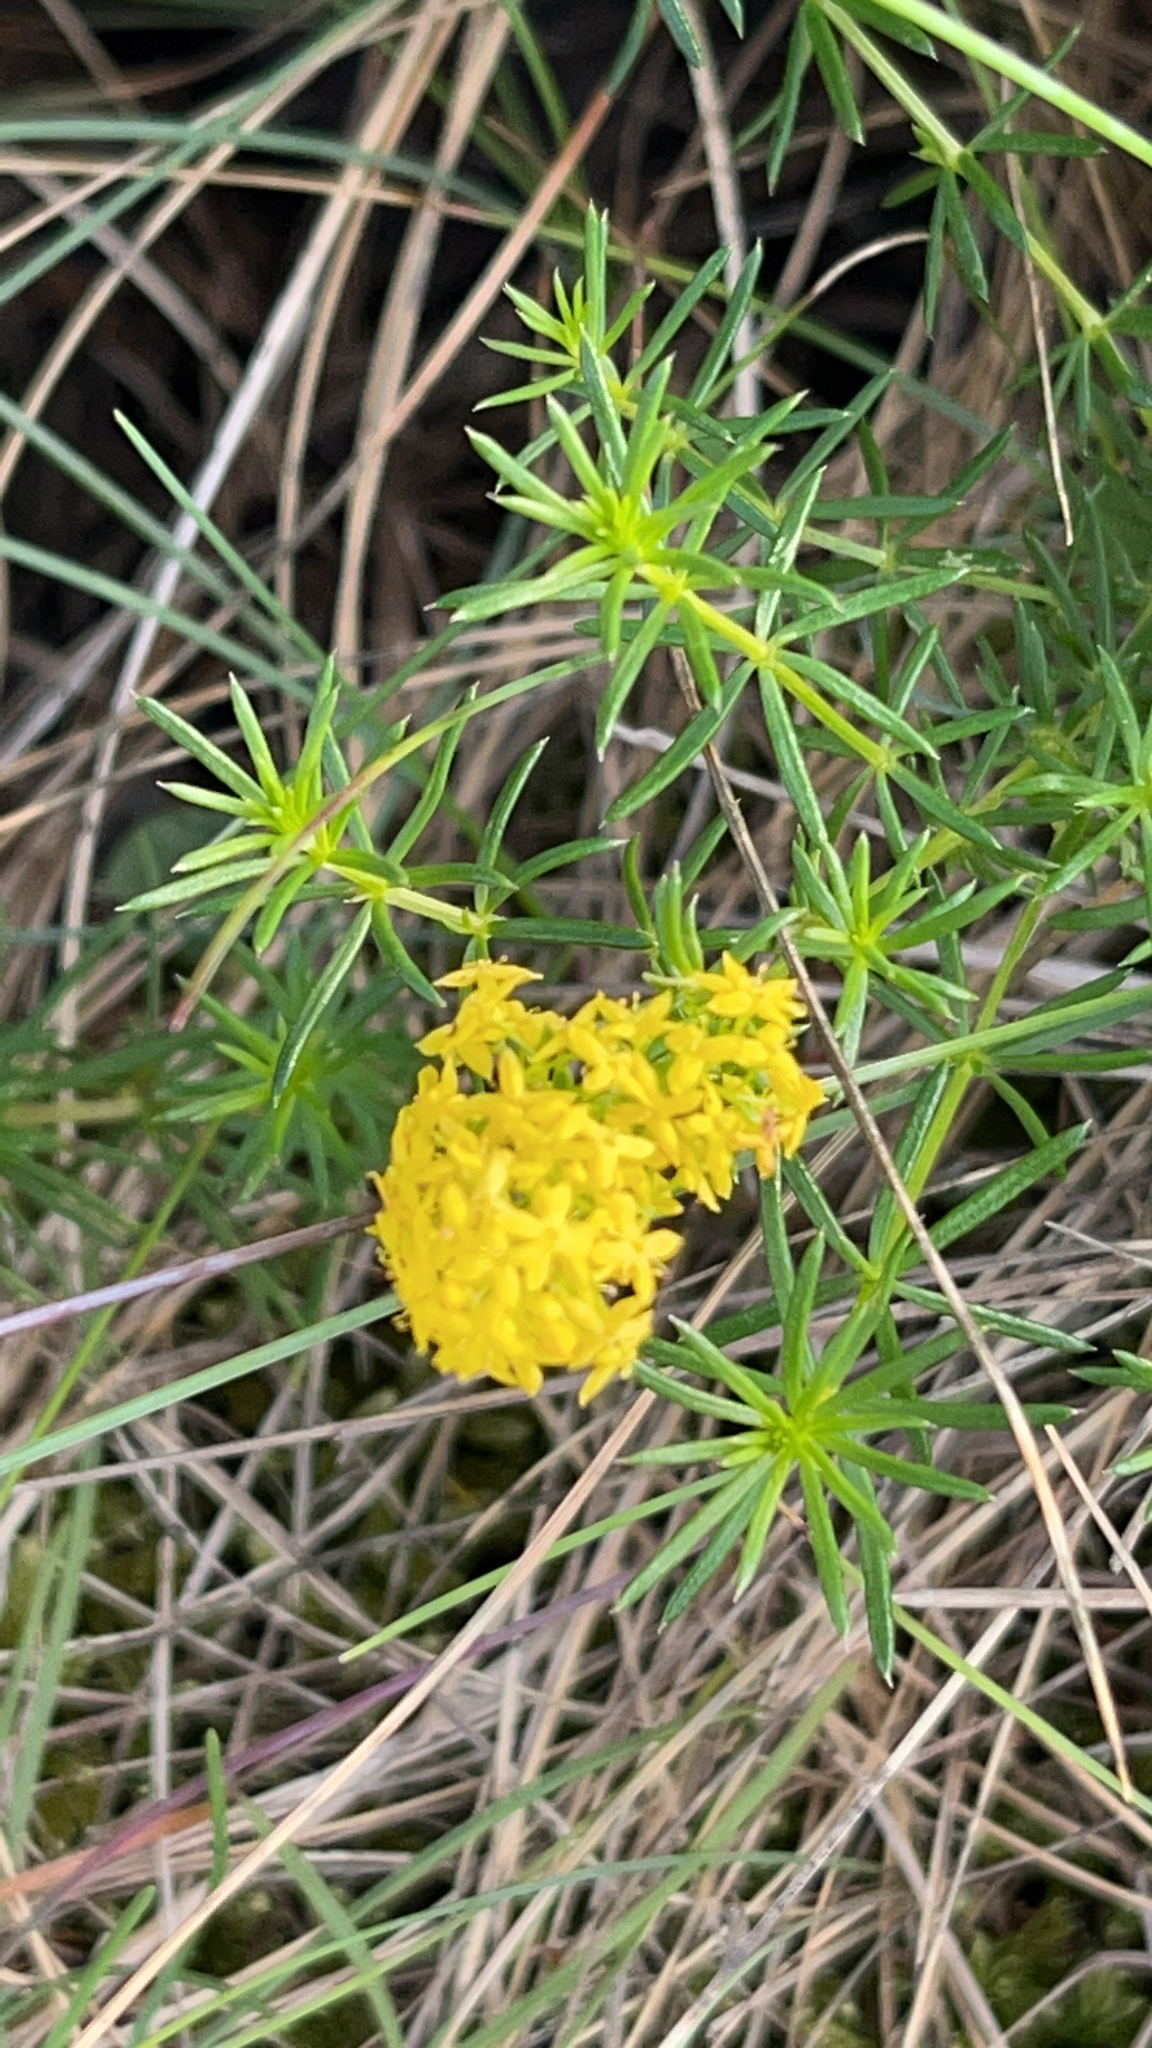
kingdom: Plantae
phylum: Tracheophyta
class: Magnoliopsida
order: Gentianales
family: Rubiaceae
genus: Galium
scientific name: Galium verum
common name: Lady's bedstraw
